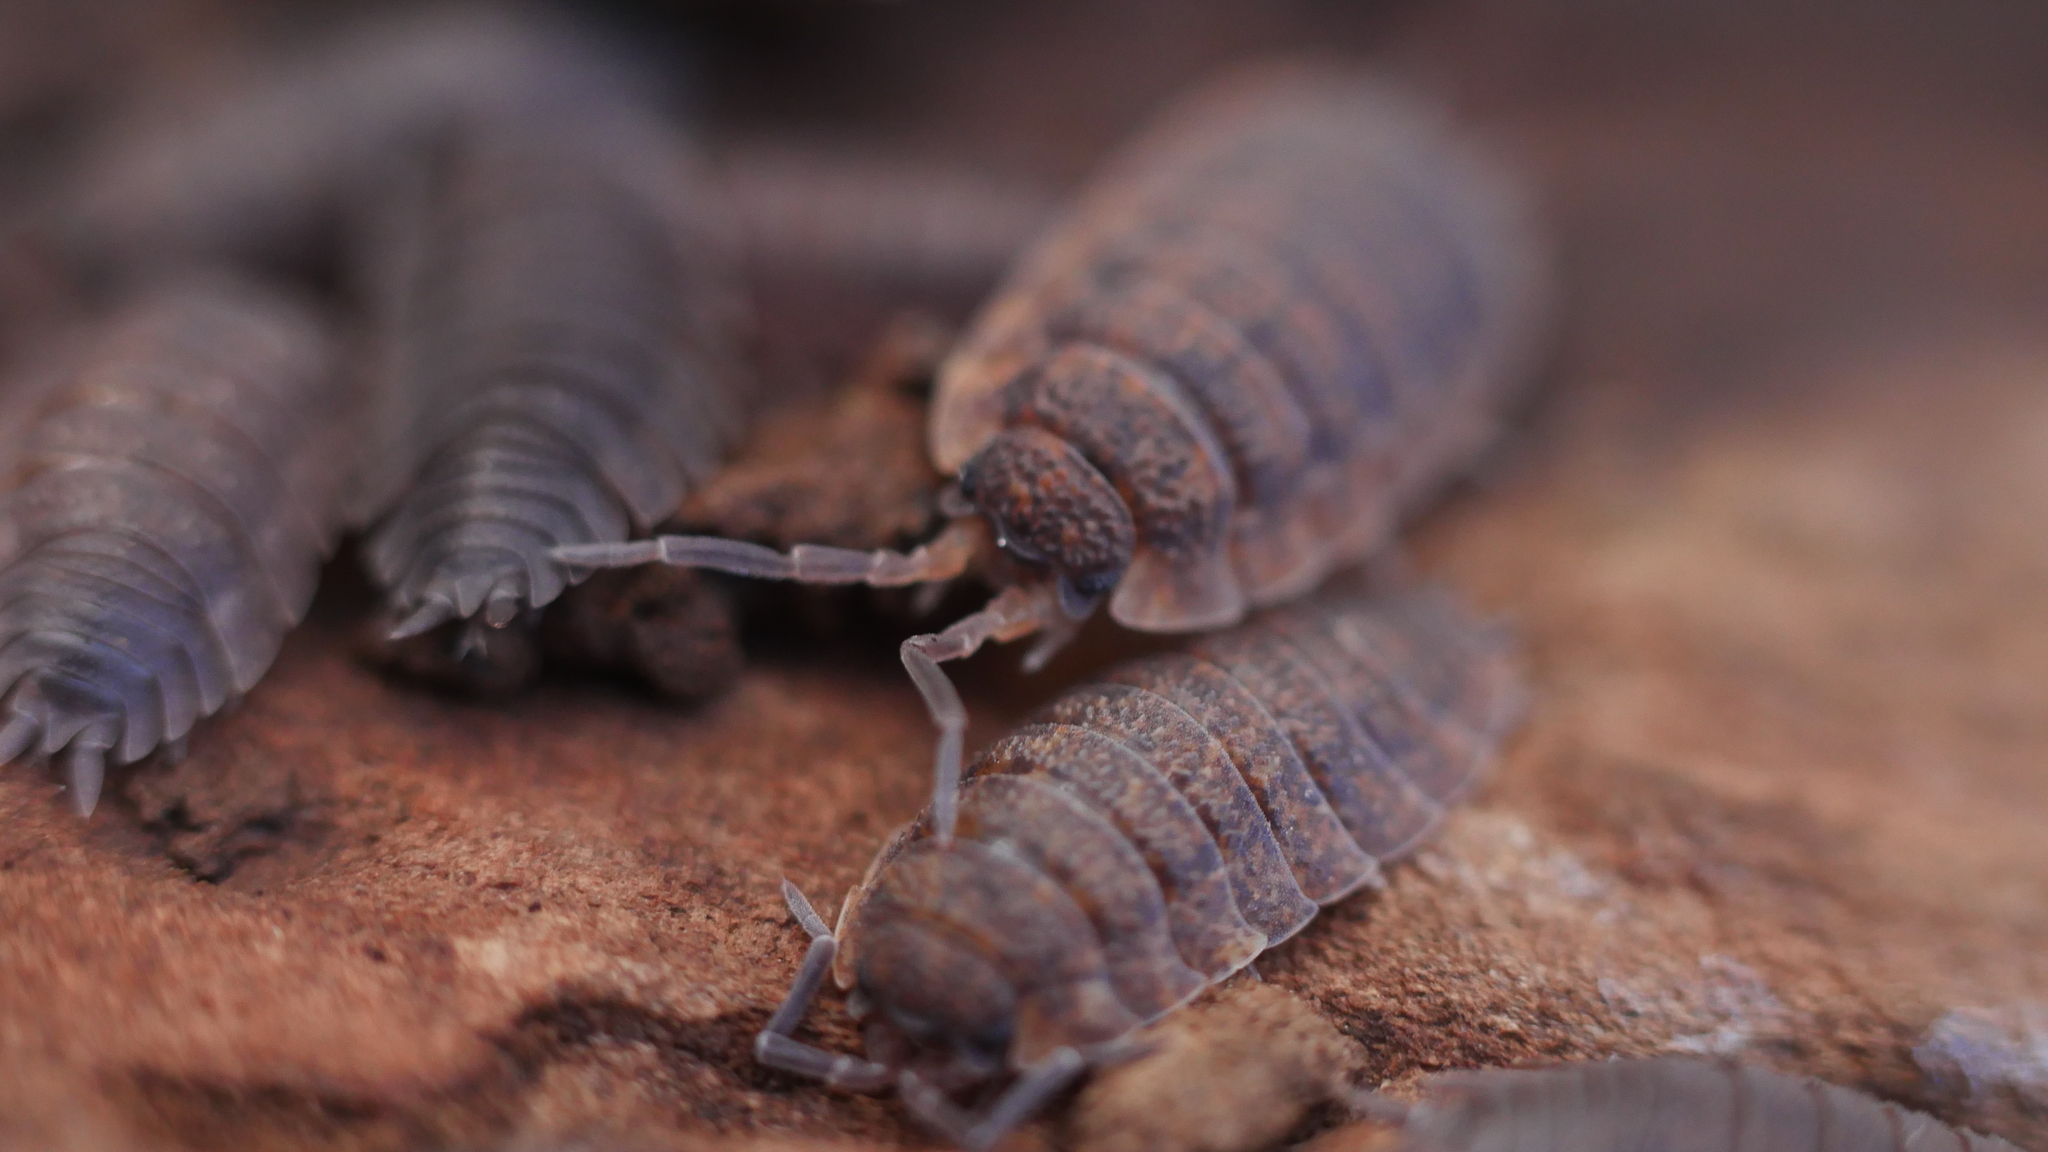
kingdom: Animalia
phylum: Arthropoda
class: Malacostraca
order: Isopoda
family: Porcellionidae
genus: Porcellio
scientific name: Porcellio scaber
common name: Common rough woodlouse
